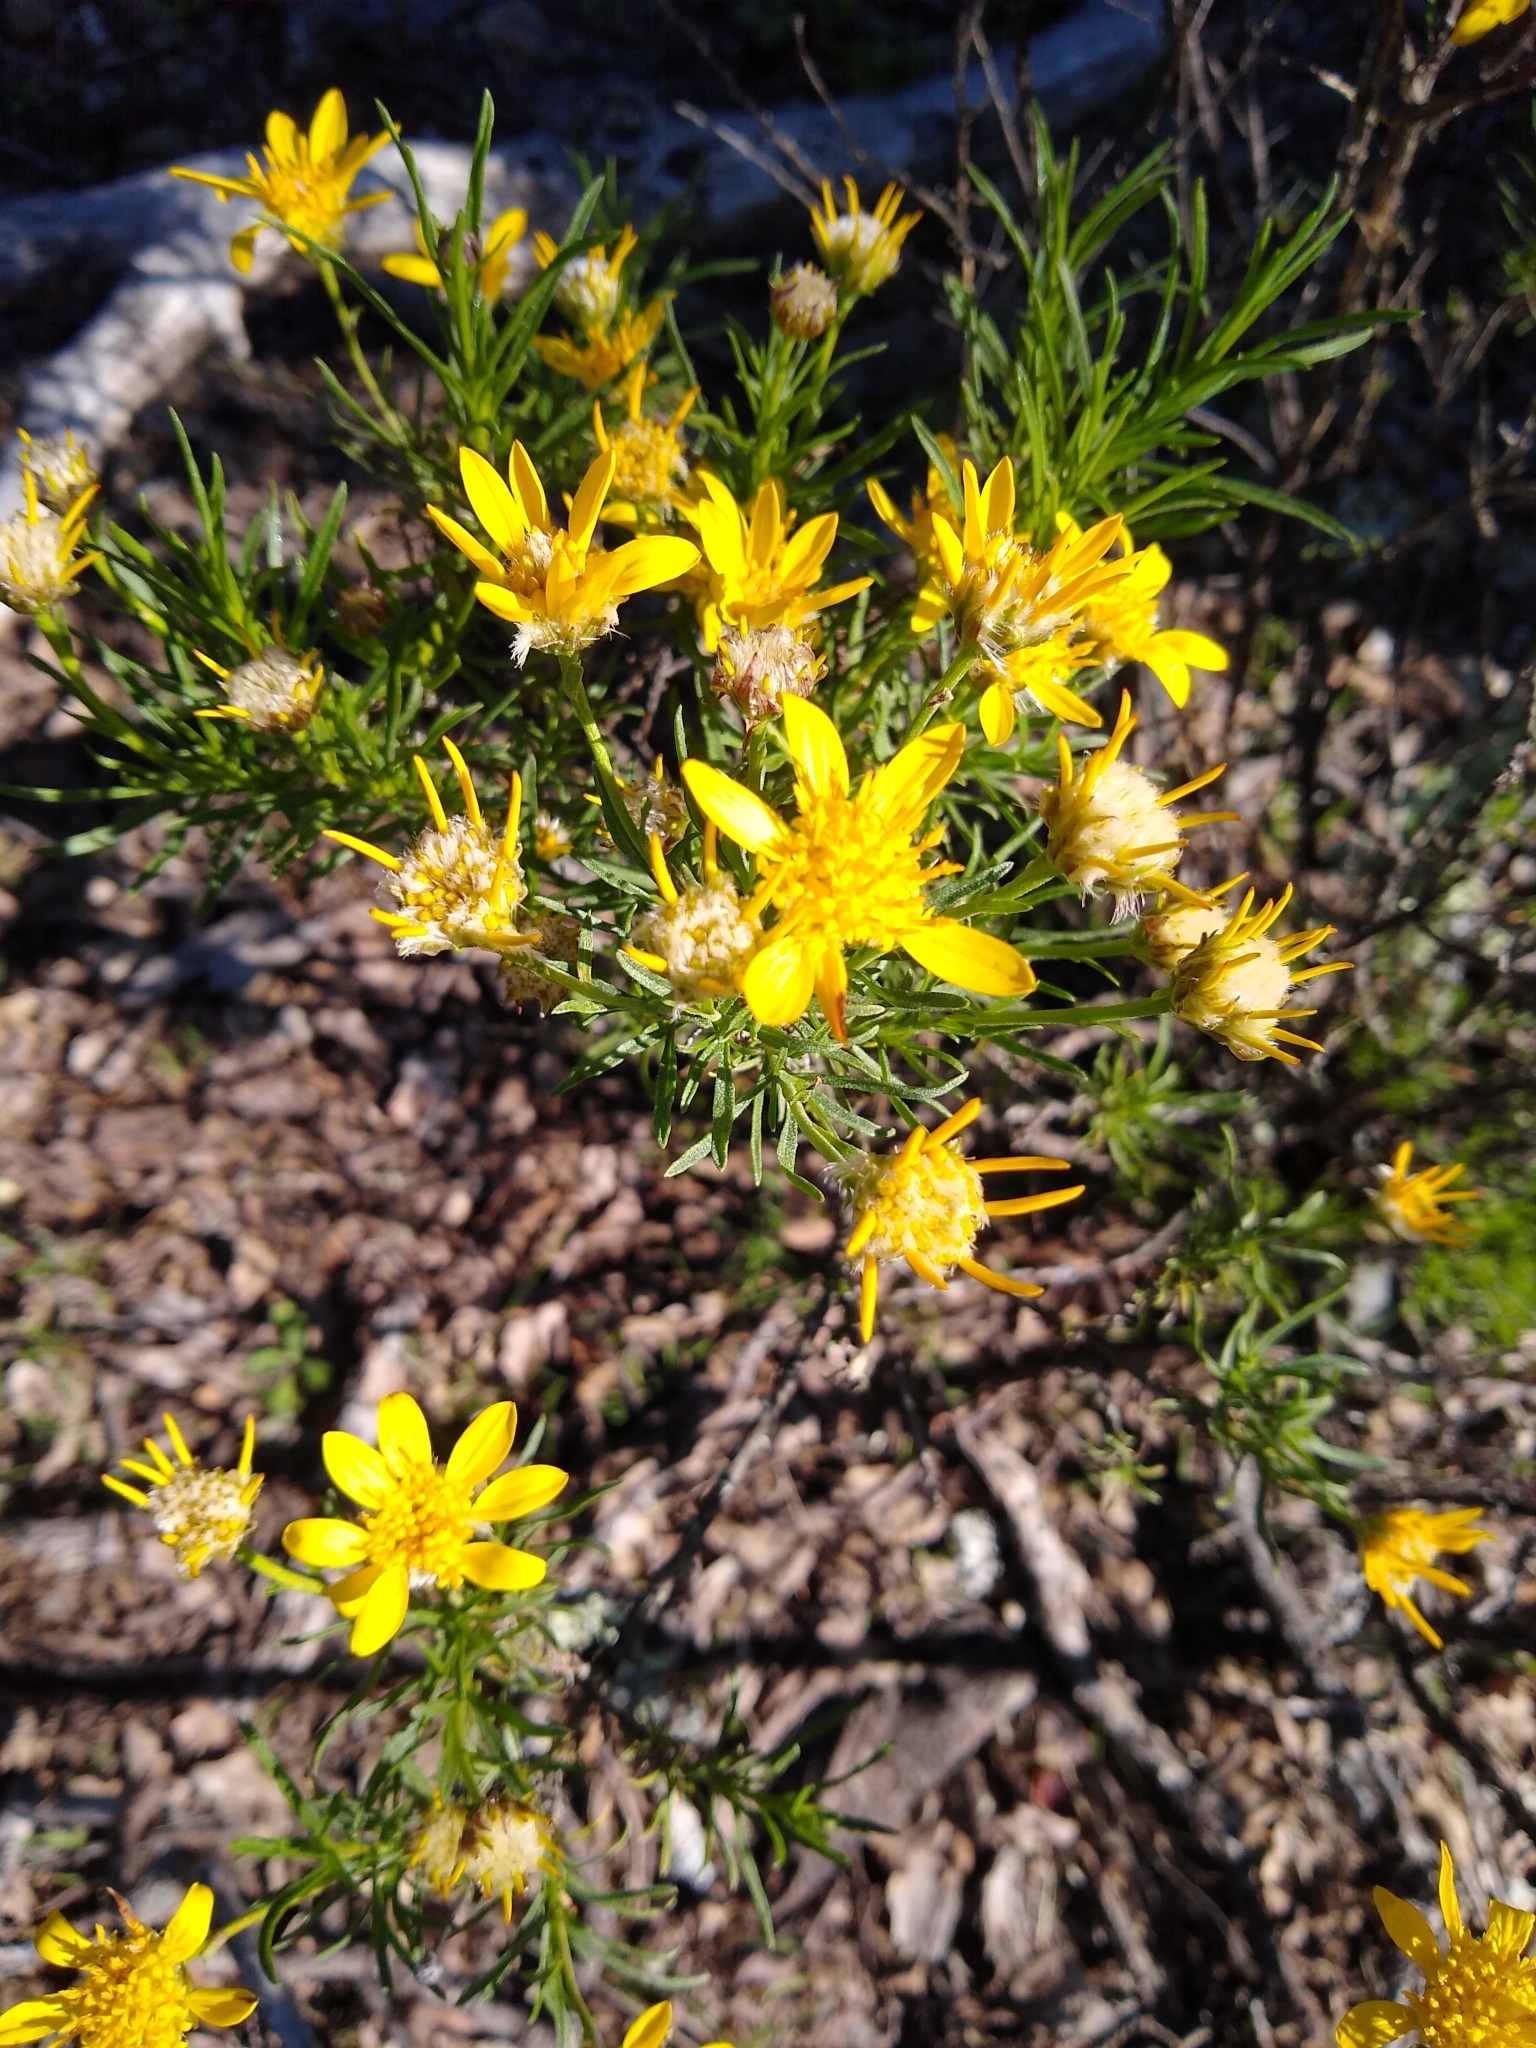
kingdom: Plantae
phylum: Tracheophyta
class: Magnoliopsida
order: Asterales
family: Asteraceae
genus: Ericameria
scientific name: Ericameria linearifolia
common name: Interior goldenbush
